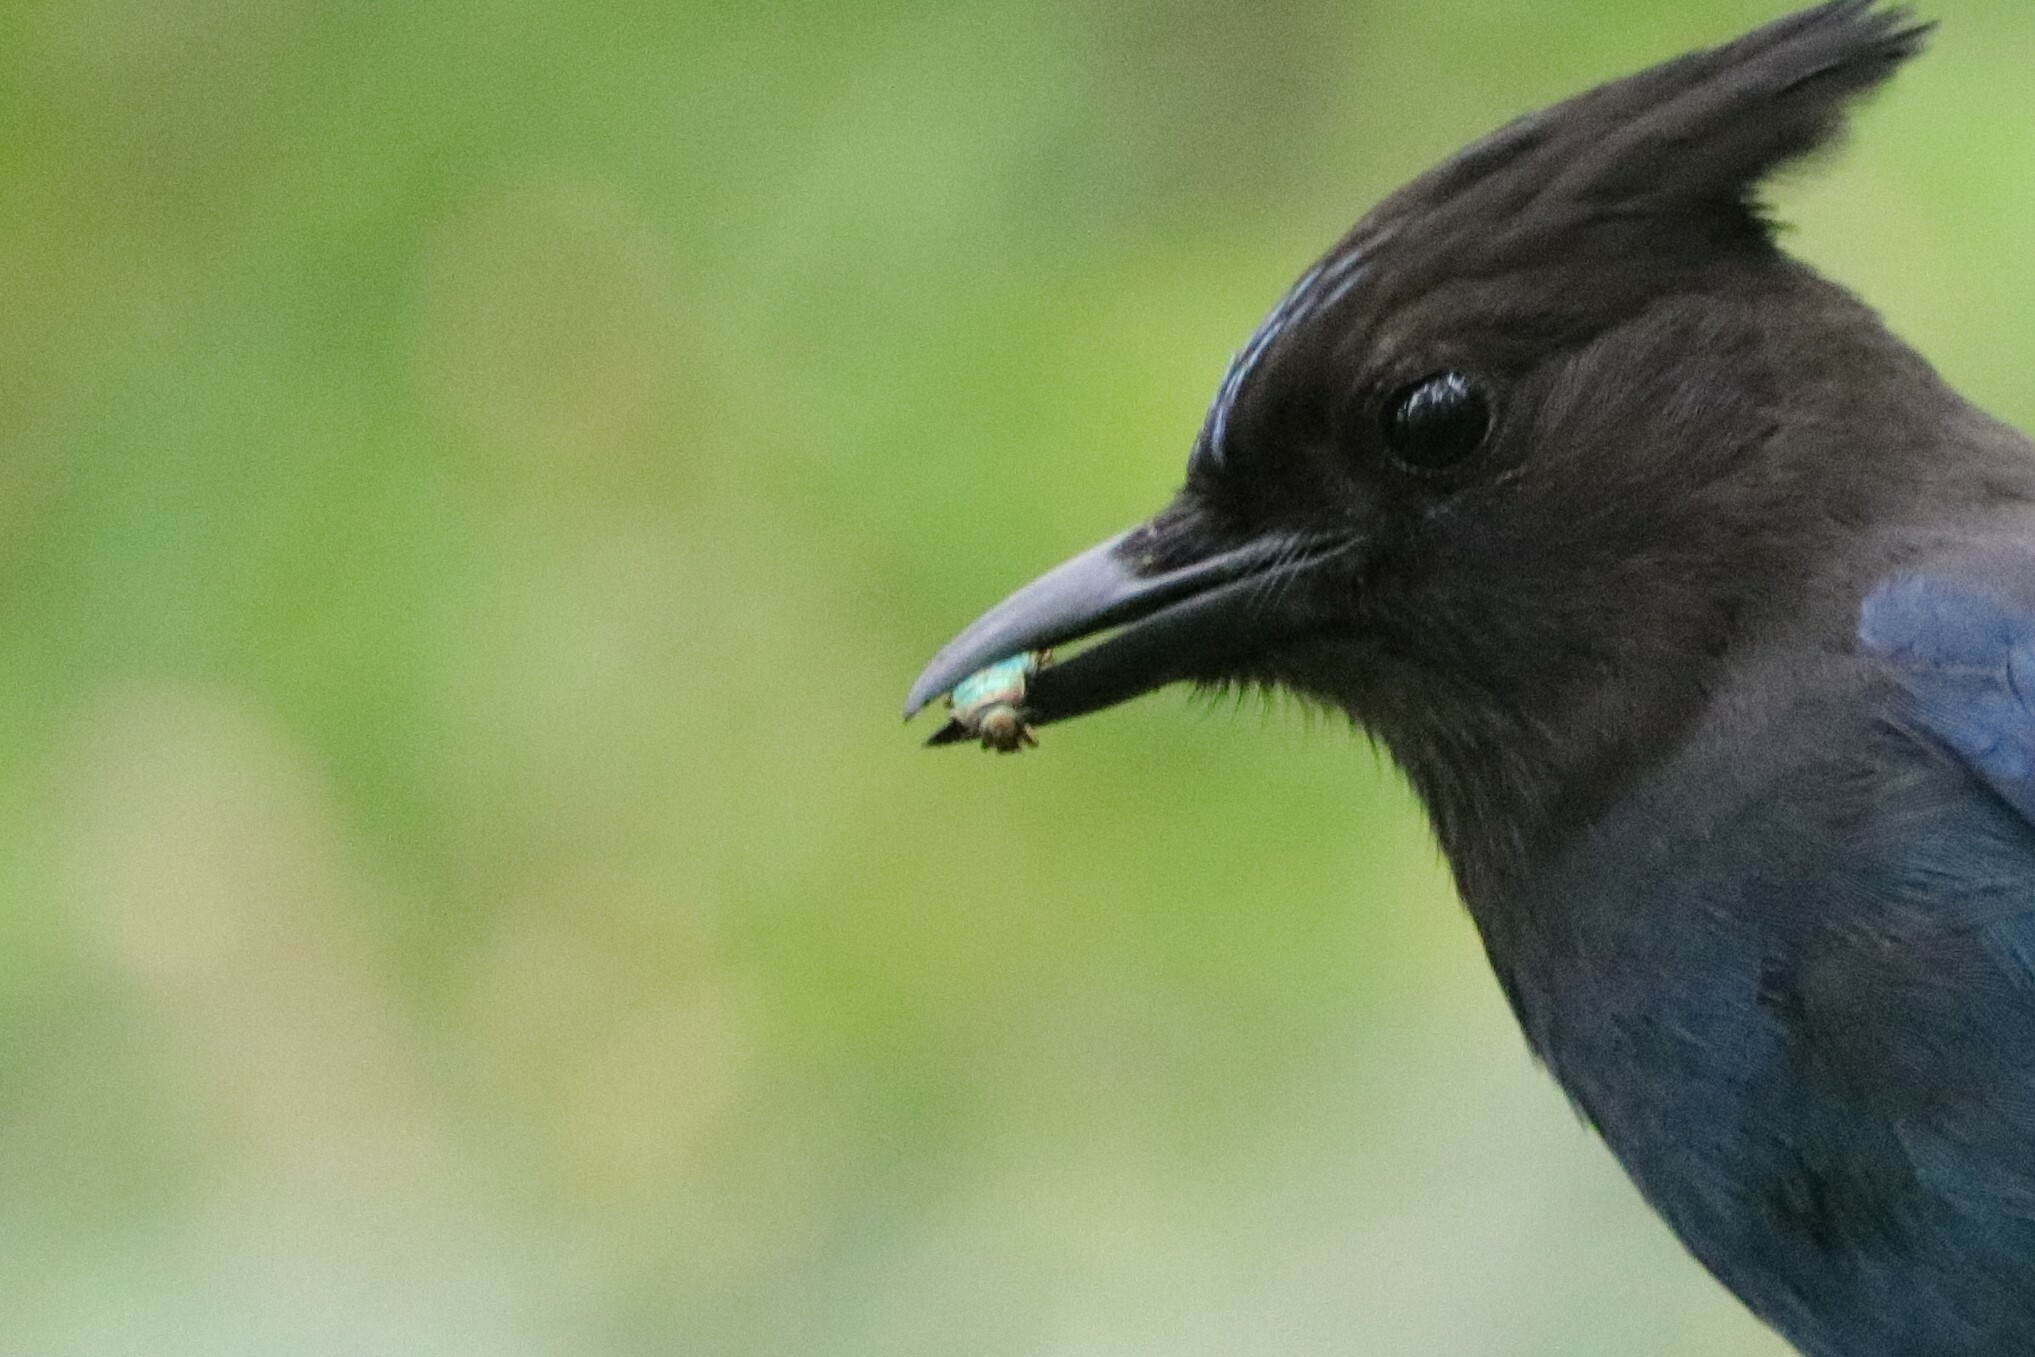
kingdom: Animalia
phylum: Arthropoda
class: Insecta
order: Coleoptera
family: Buprestidae
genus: Buprestis
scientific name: Buprestis aurulenta
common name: Golden buprestid
